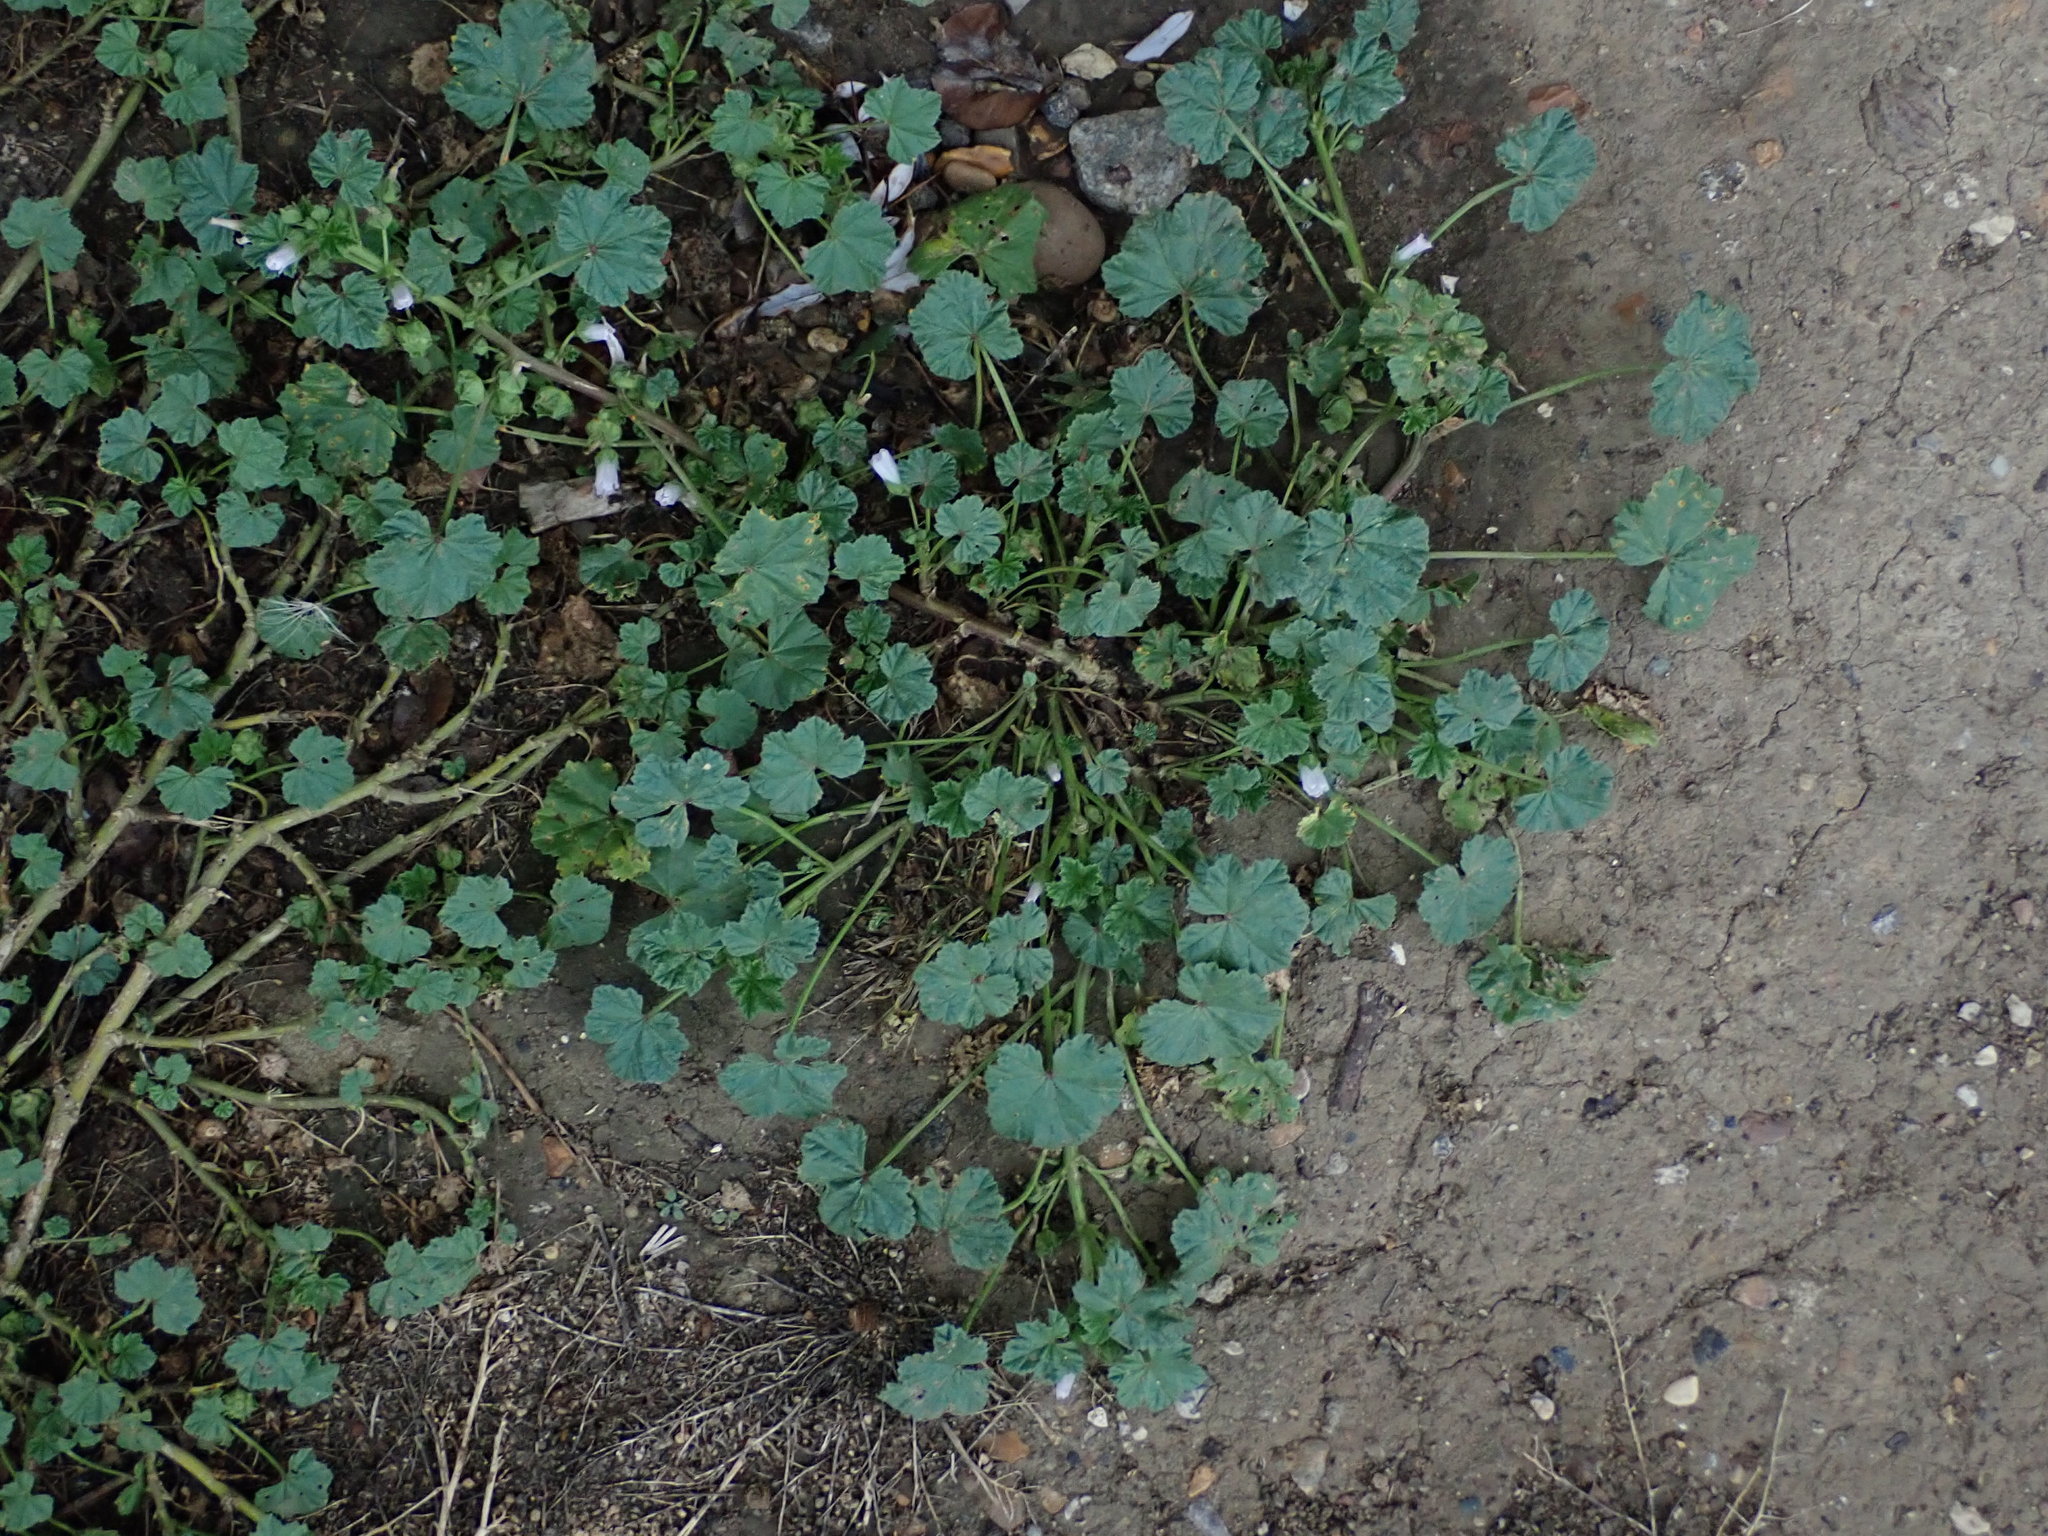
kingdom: Plantae
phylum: Tracheophyta
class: Magnoliopsida
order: Malvales
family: Malvaceae
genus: Malva
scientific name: Malva neglecta
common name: Common mallow
